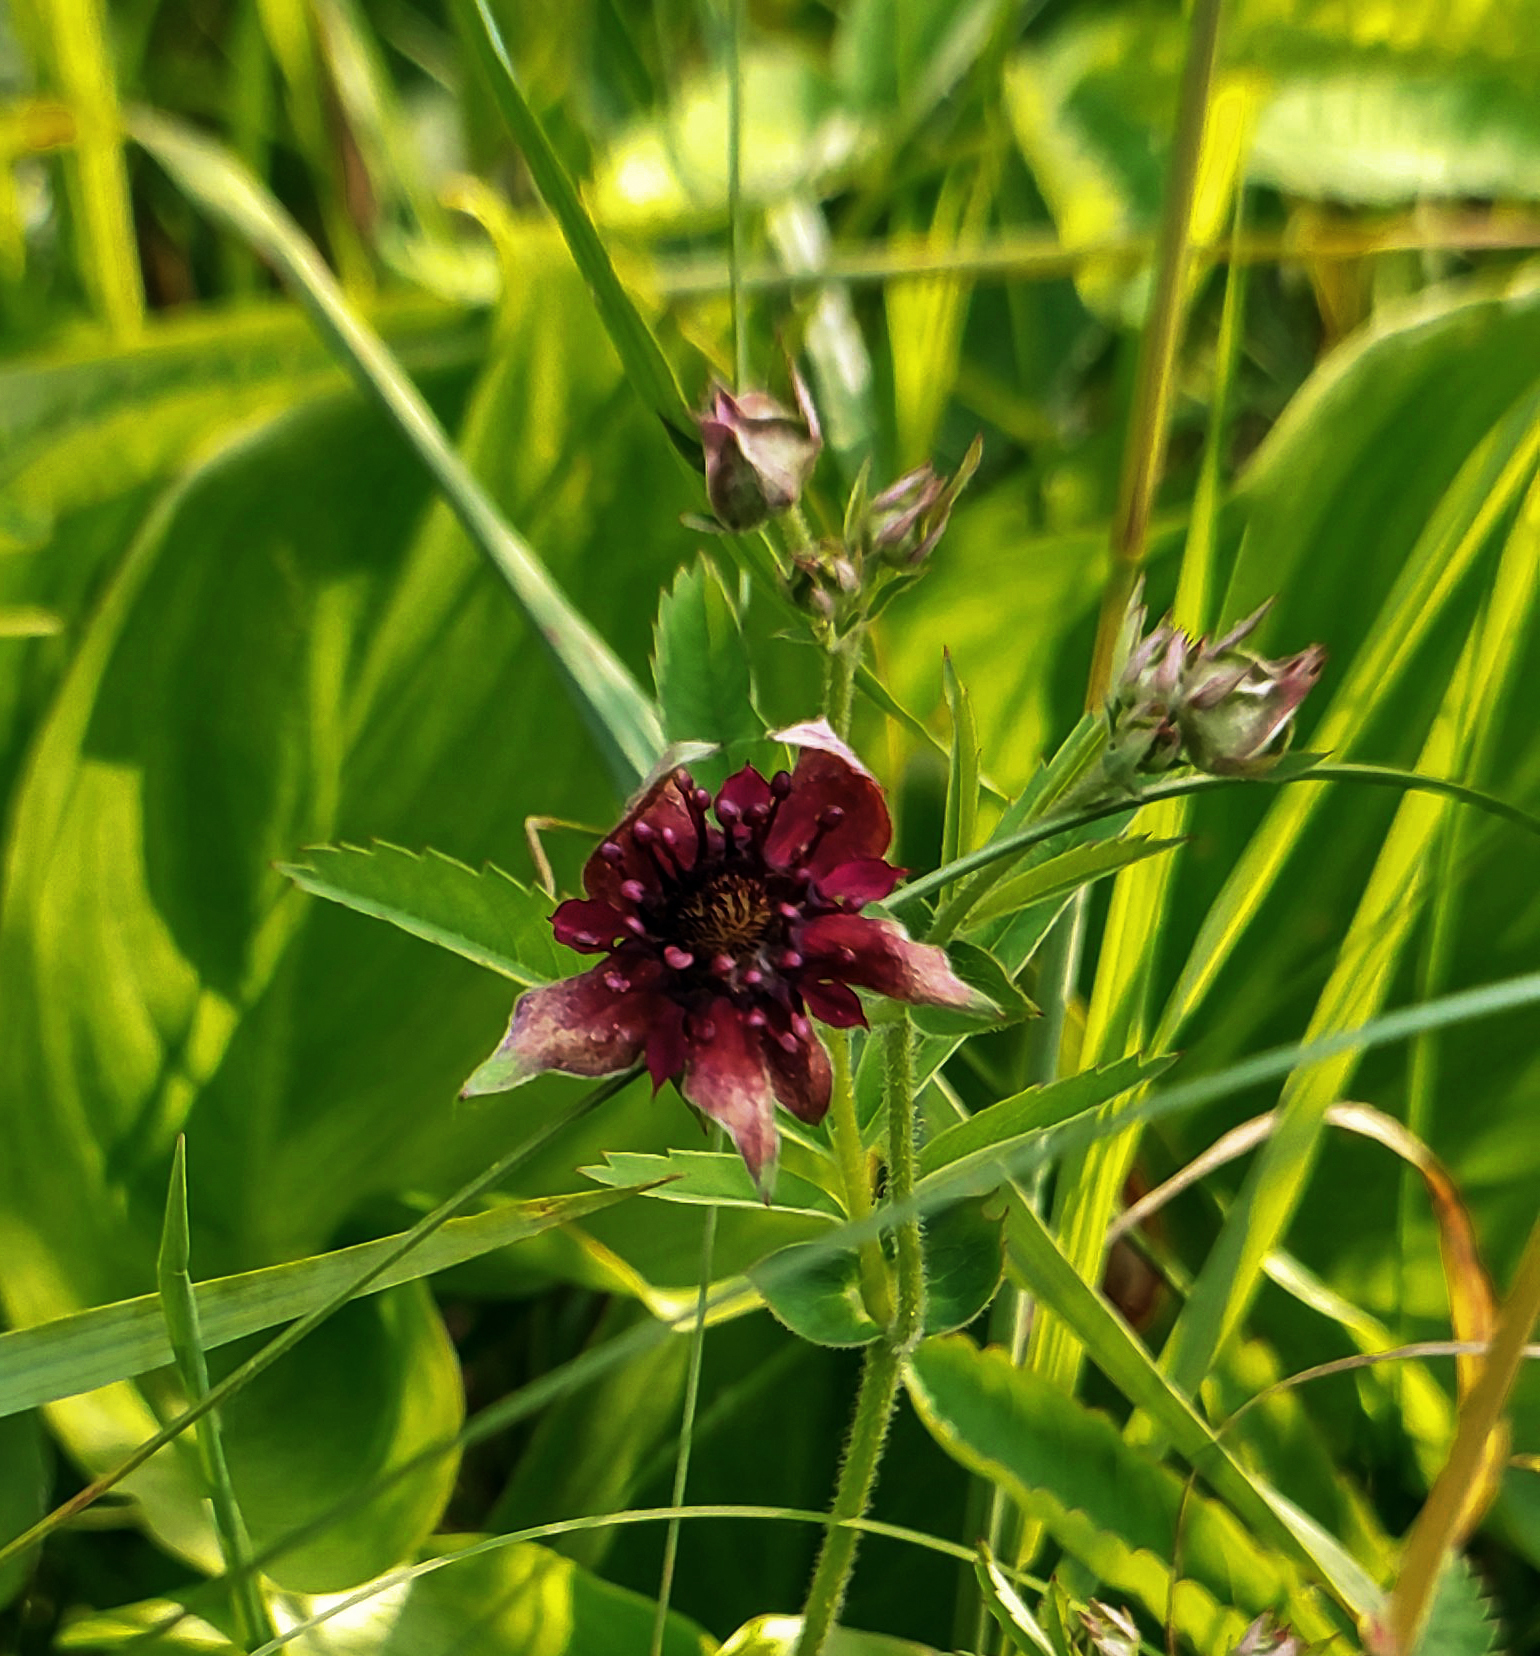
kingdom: Plantae
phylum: Tracheophyta
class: Magnoliopsida
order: Rosales
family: Rosaceae
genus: Comarum
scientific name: Comarum palustre
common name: Marsh cinquefoil
